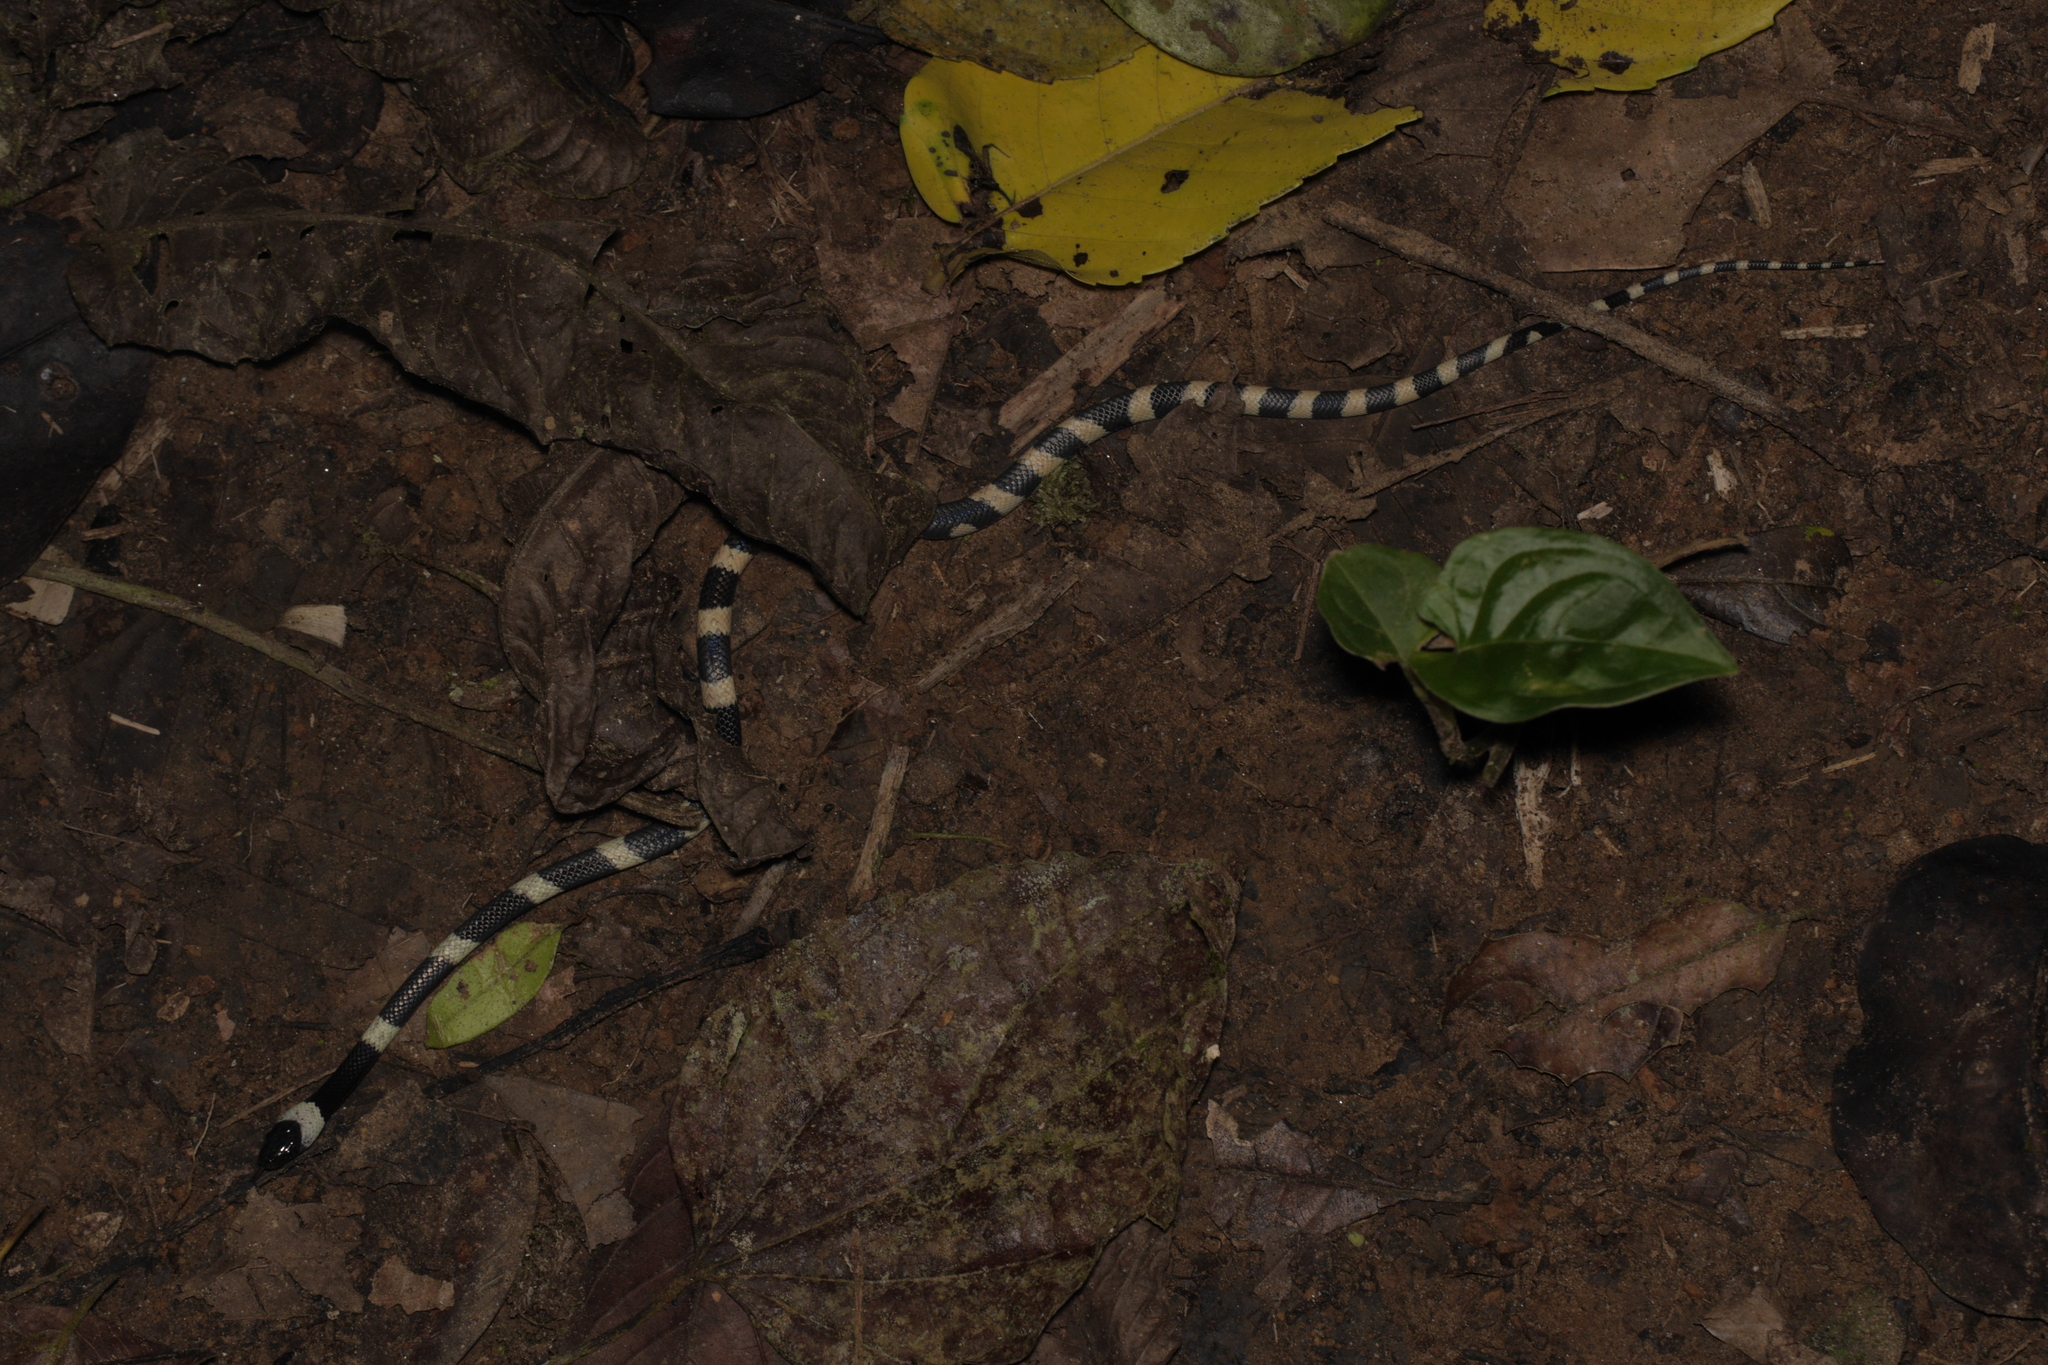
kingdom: Animalia
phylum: Chordata
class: Squamata
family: Colubridae
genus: Oxyrhopus
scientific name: Oxyrhopus petolarius
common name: Forest flame snake
